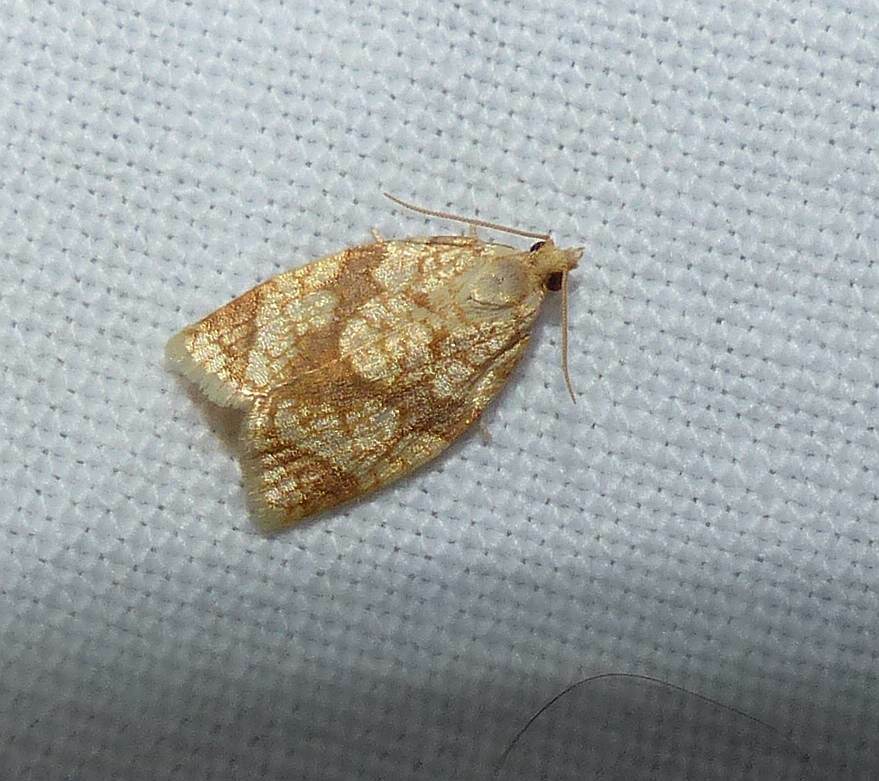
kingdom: Animalia
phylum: Arthropoda
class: Insecta
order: Lepidoptera
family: Tortricidae
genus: Adoxophyes
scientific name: Adoxophyes negundana
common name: Shimmering gold adoxophyes moth
